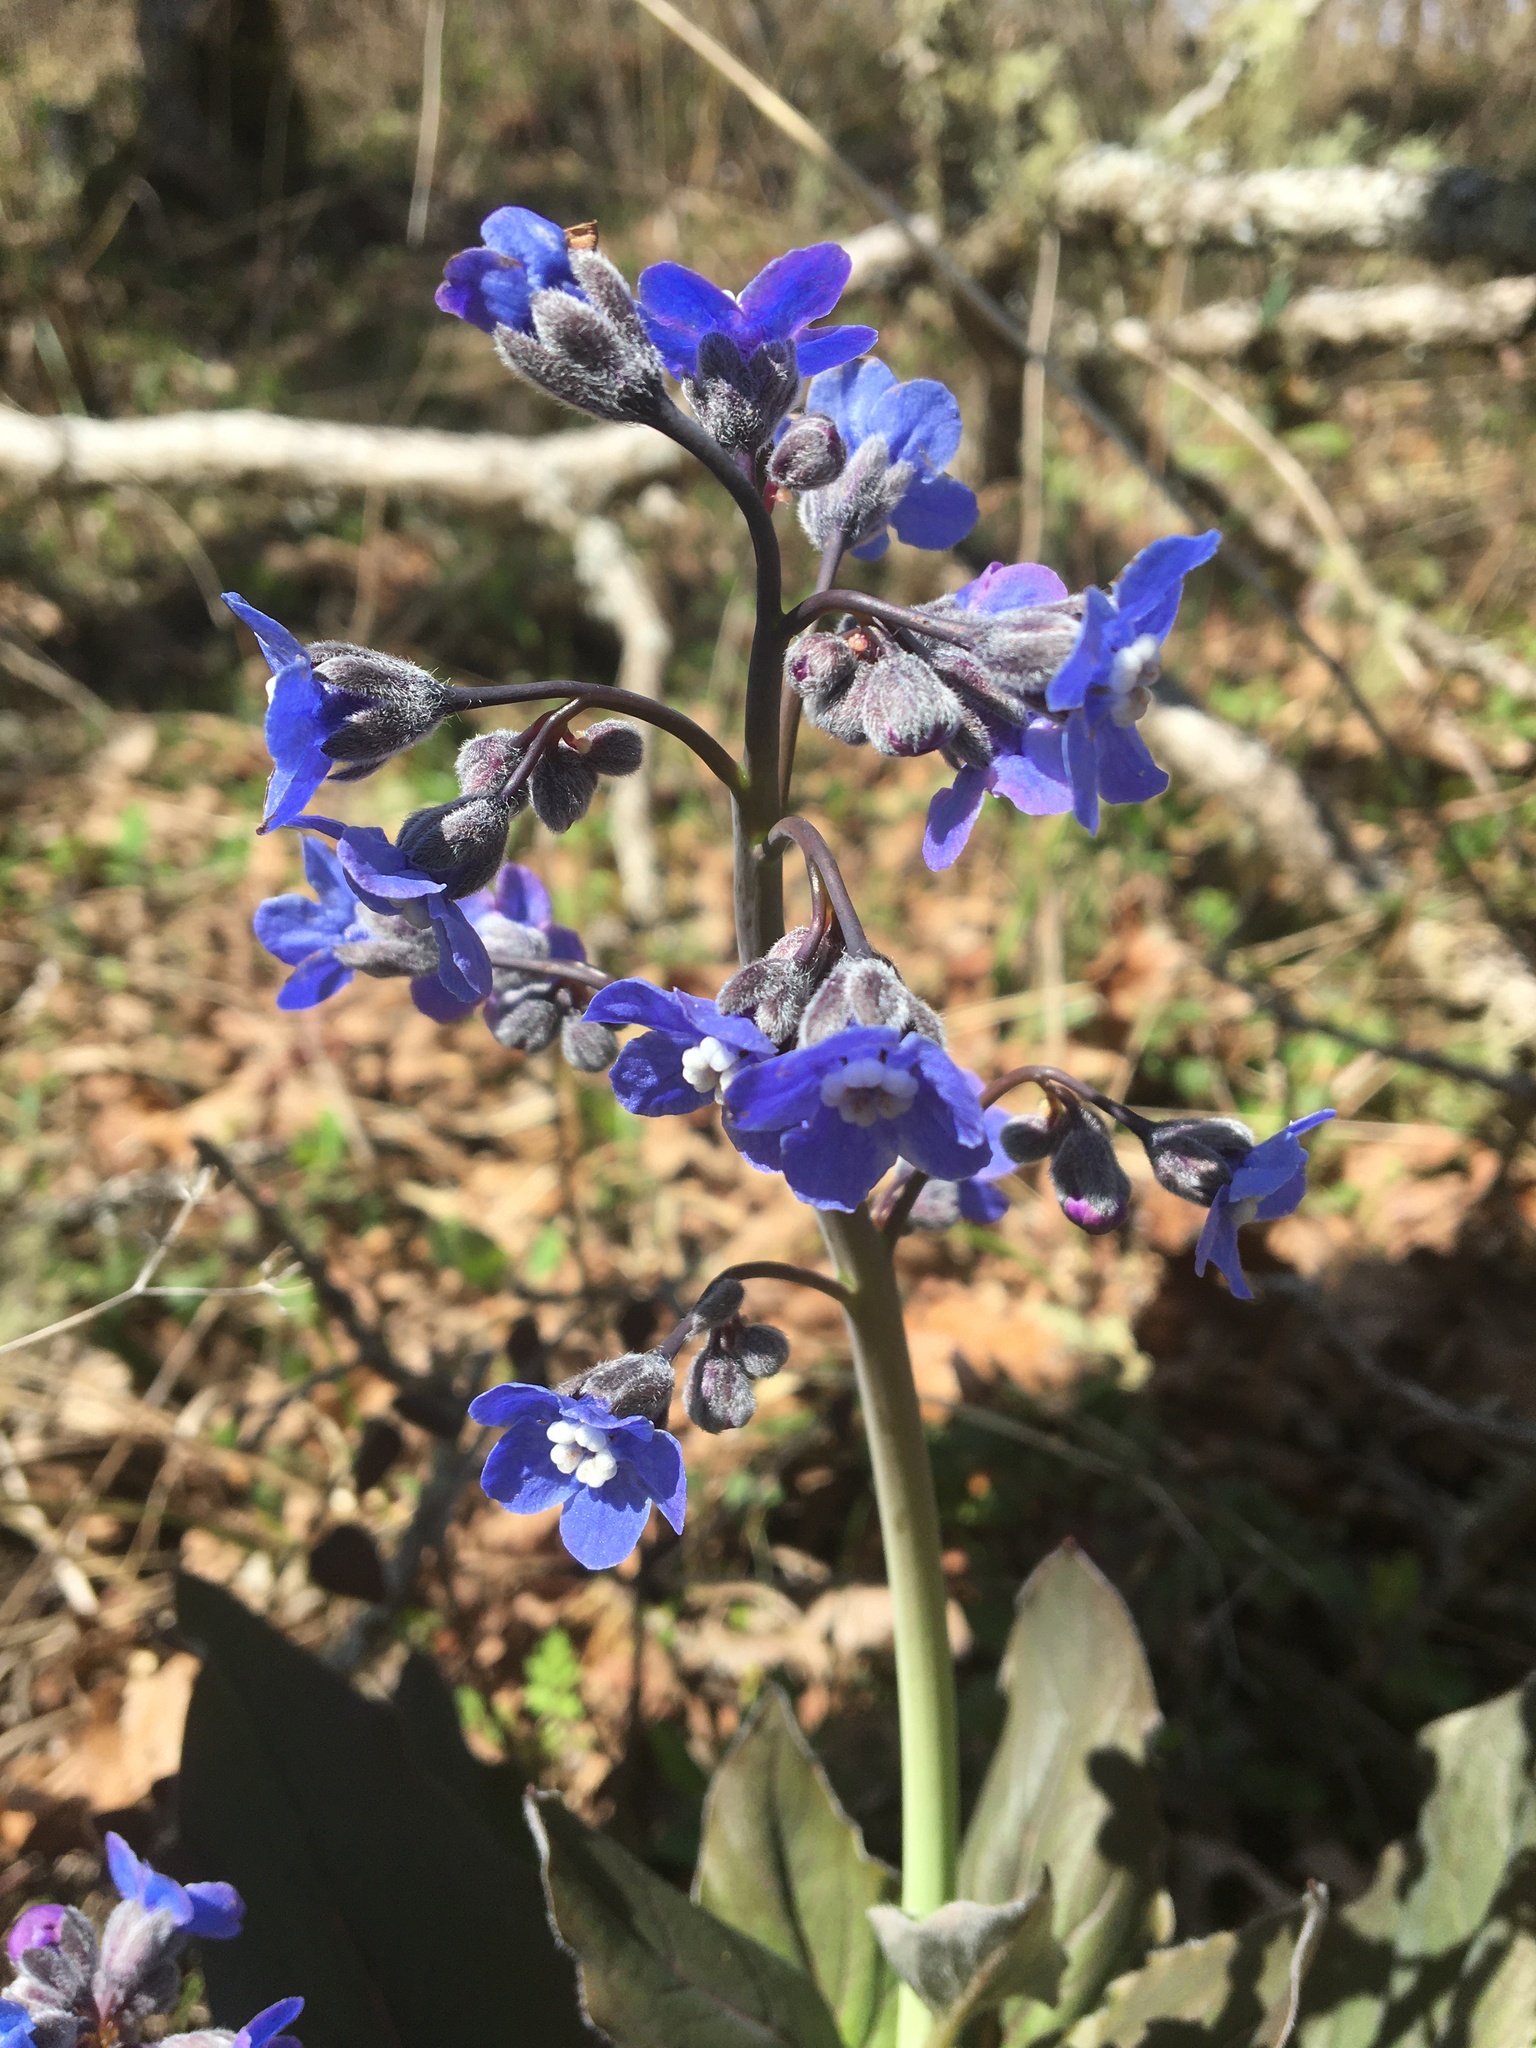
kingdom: Plantae
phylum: Tracheophyta
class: Magnoliopsida
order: Boraginales
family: Boraginaceae
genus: Adelinia
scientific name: Adelinia grande
